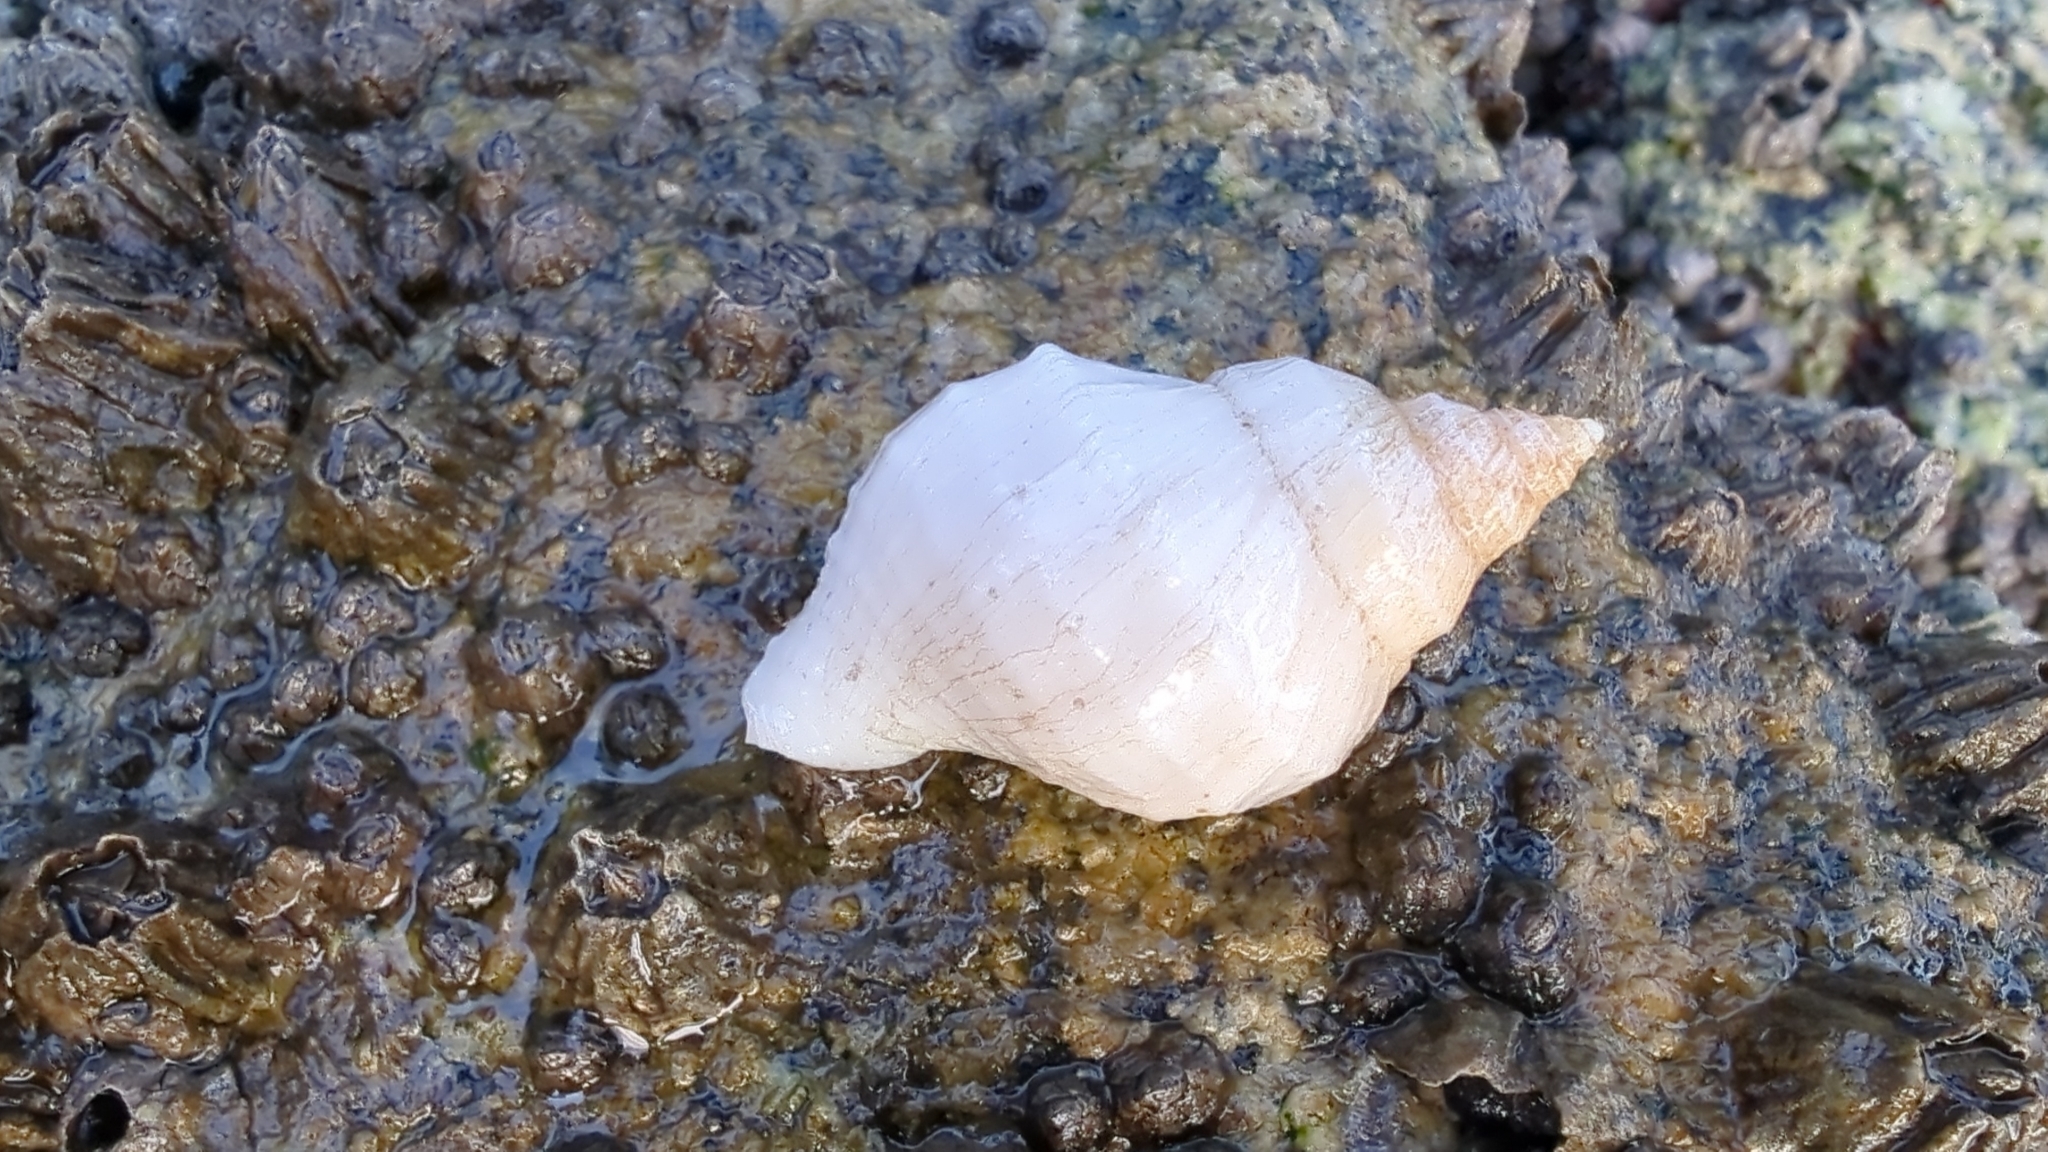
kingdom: Animalia
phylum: Mollusca
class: Gastropoda
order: Neogastropoda
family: Muricidae
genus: Nucella
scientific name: Nucella lamellosa
